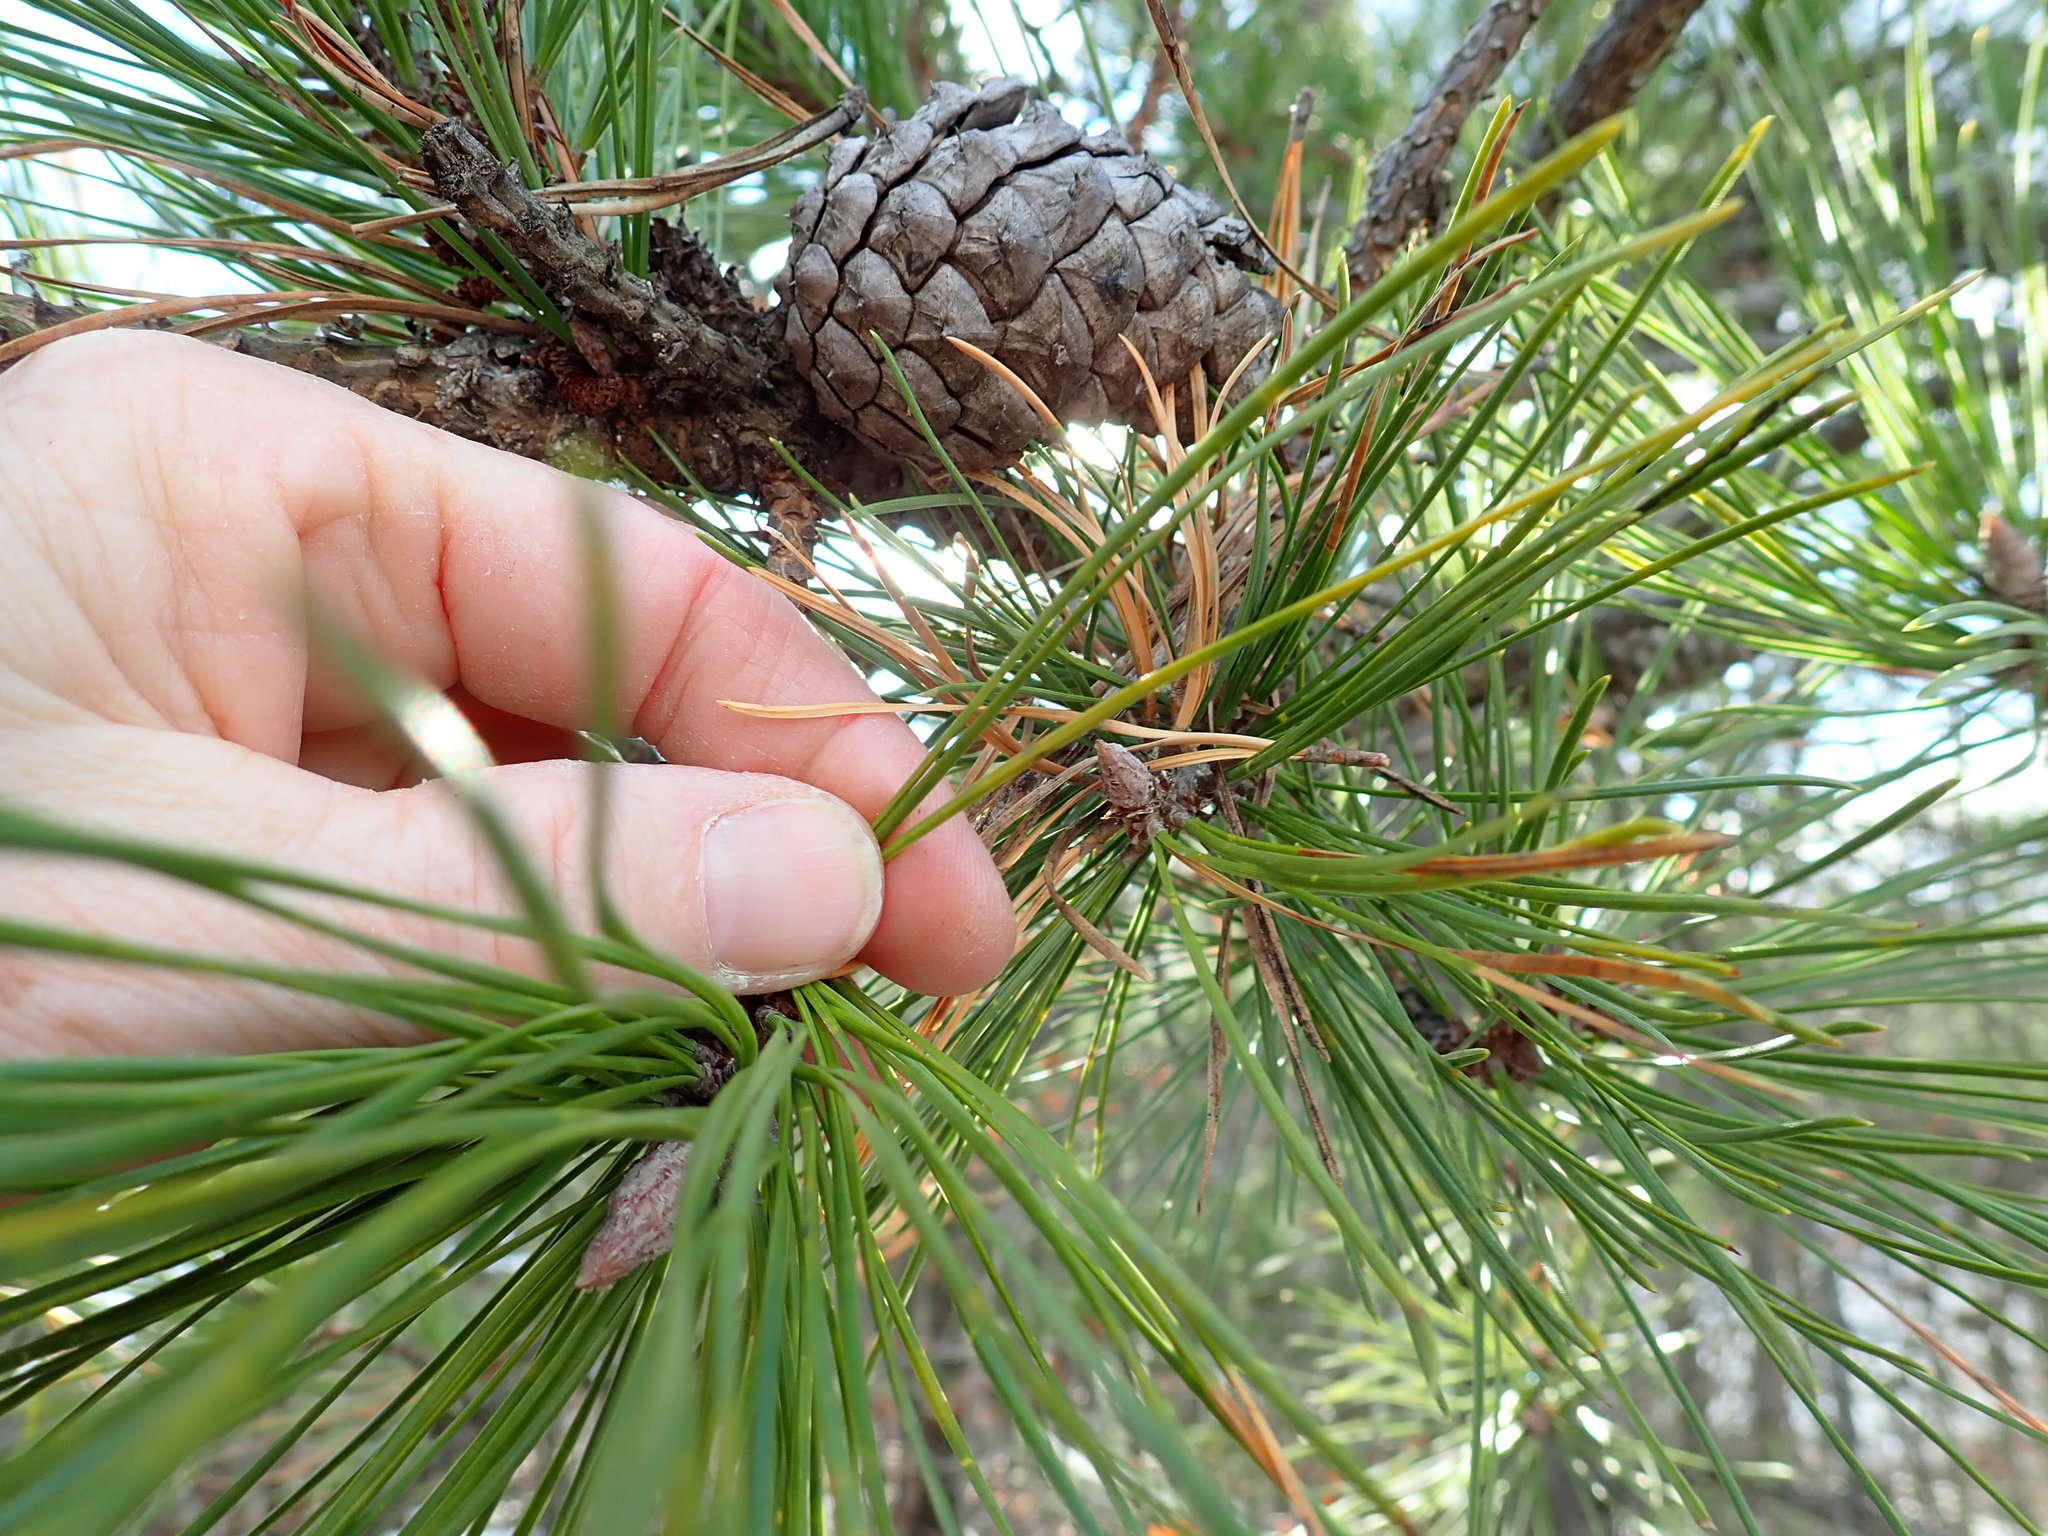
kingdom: Plantae
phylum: Tracheophyta
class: Pinopsida
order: Pinales
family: Pinaceae
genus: Pinus
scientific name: Pinus rigida
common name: Pitch pine
